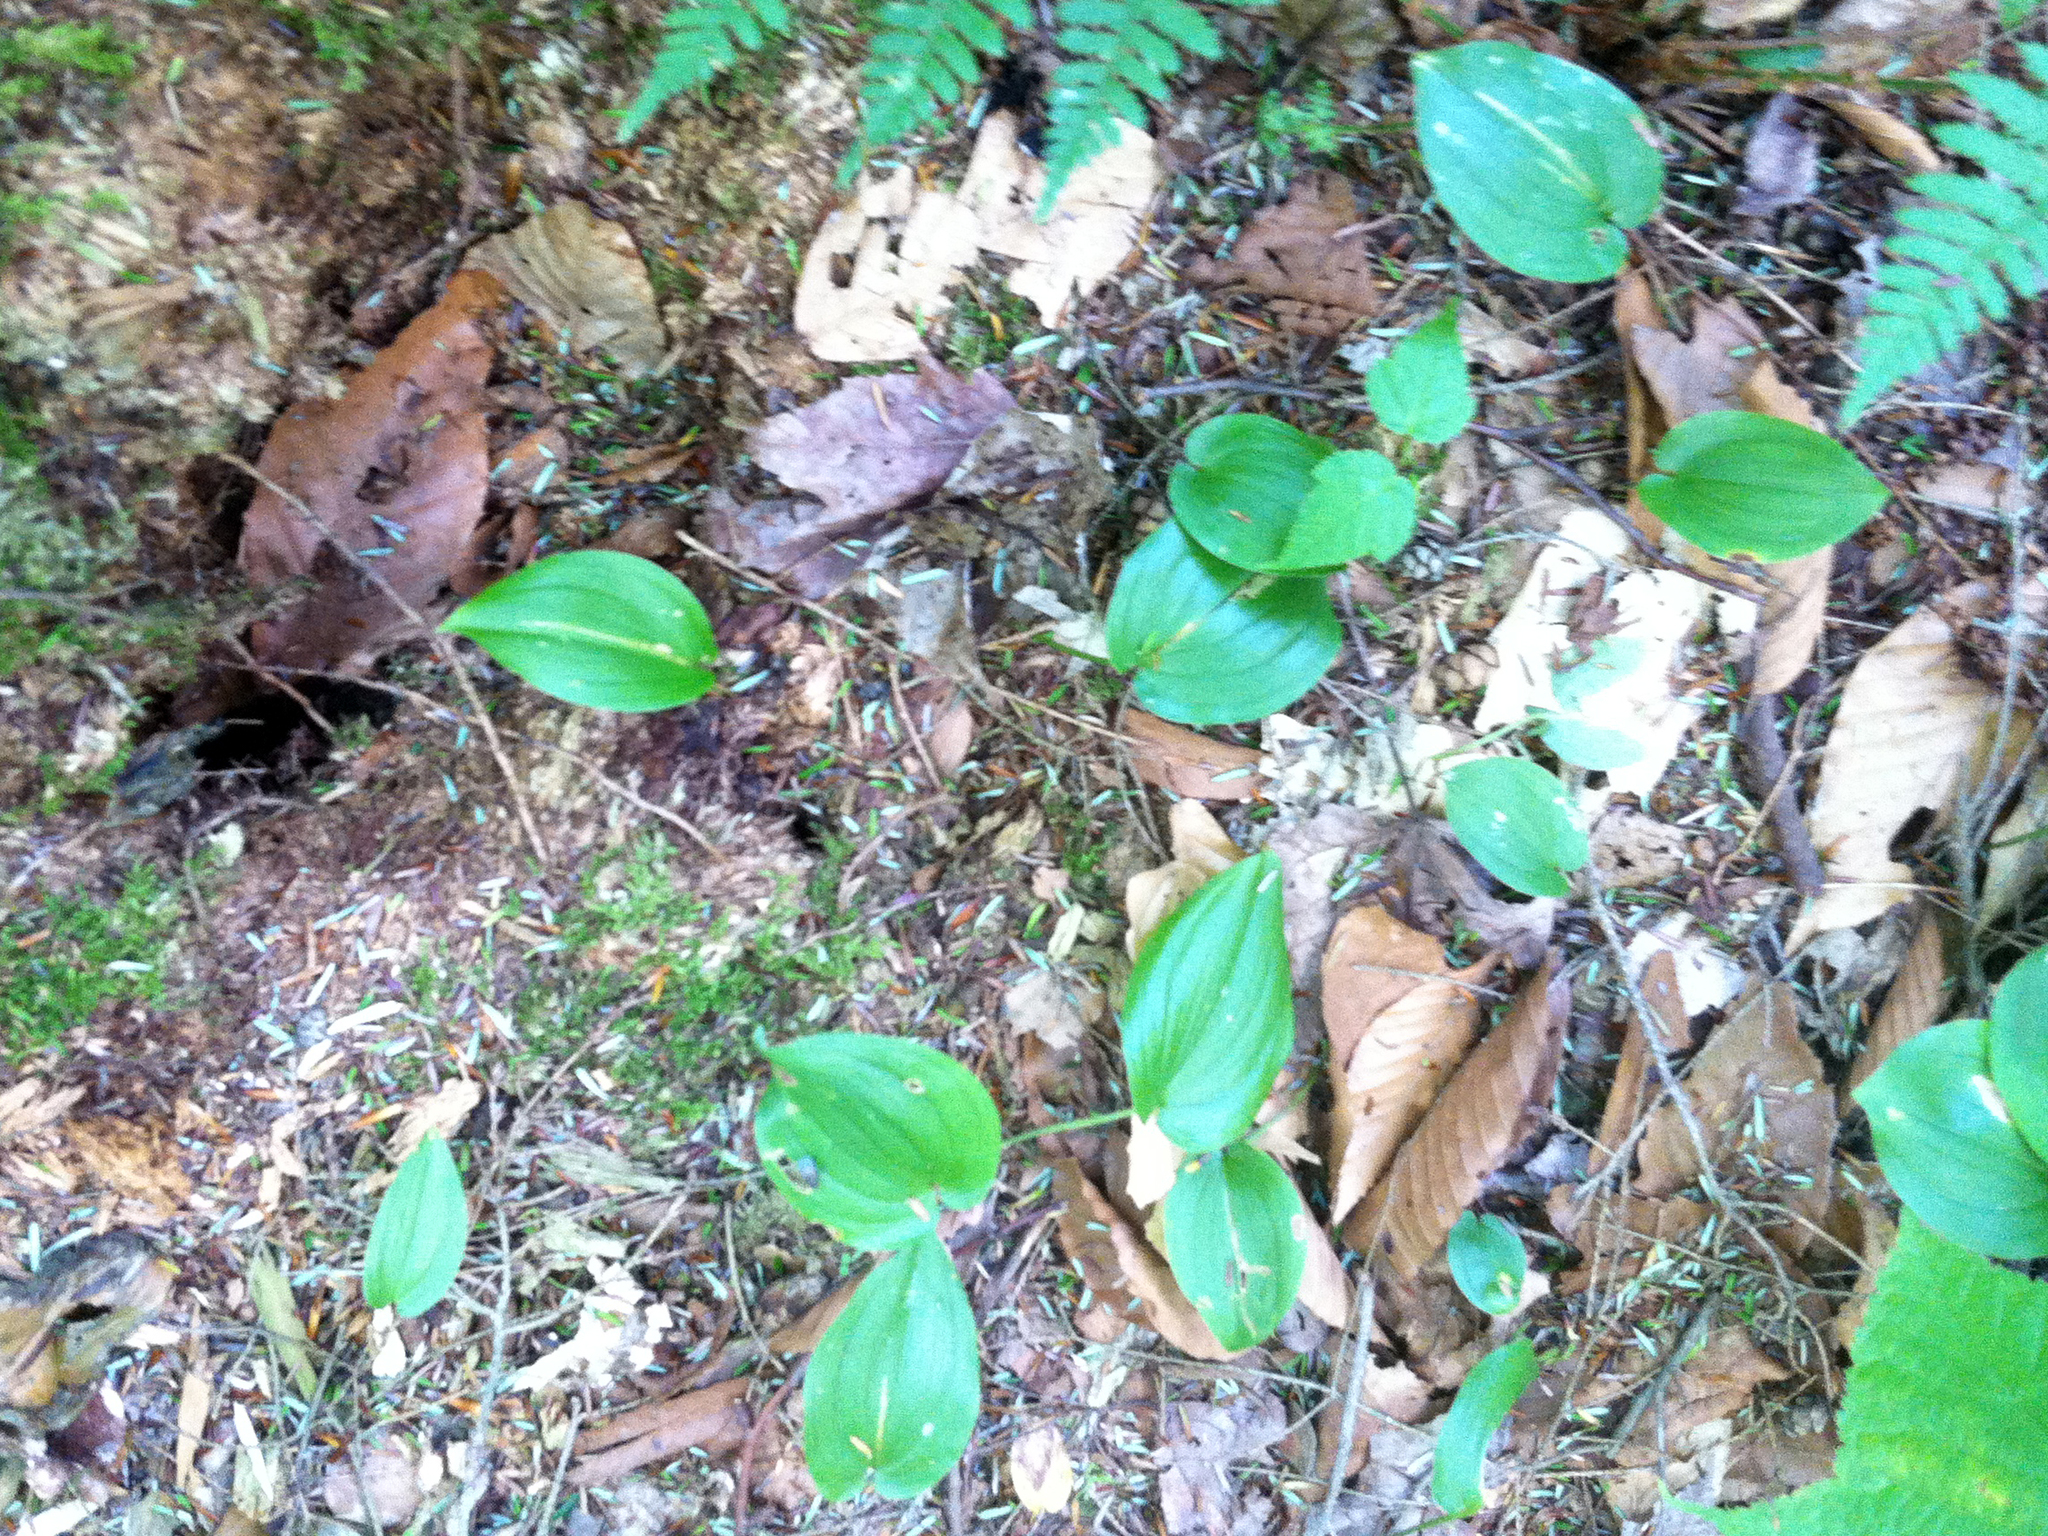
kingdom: Plantae
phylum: Tracheophyta
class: Liliopsida
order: Asparagales
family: Asparagaceae
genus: Maianthemum
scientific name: Maianthemum canadense
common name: False lily-of-the-valley
